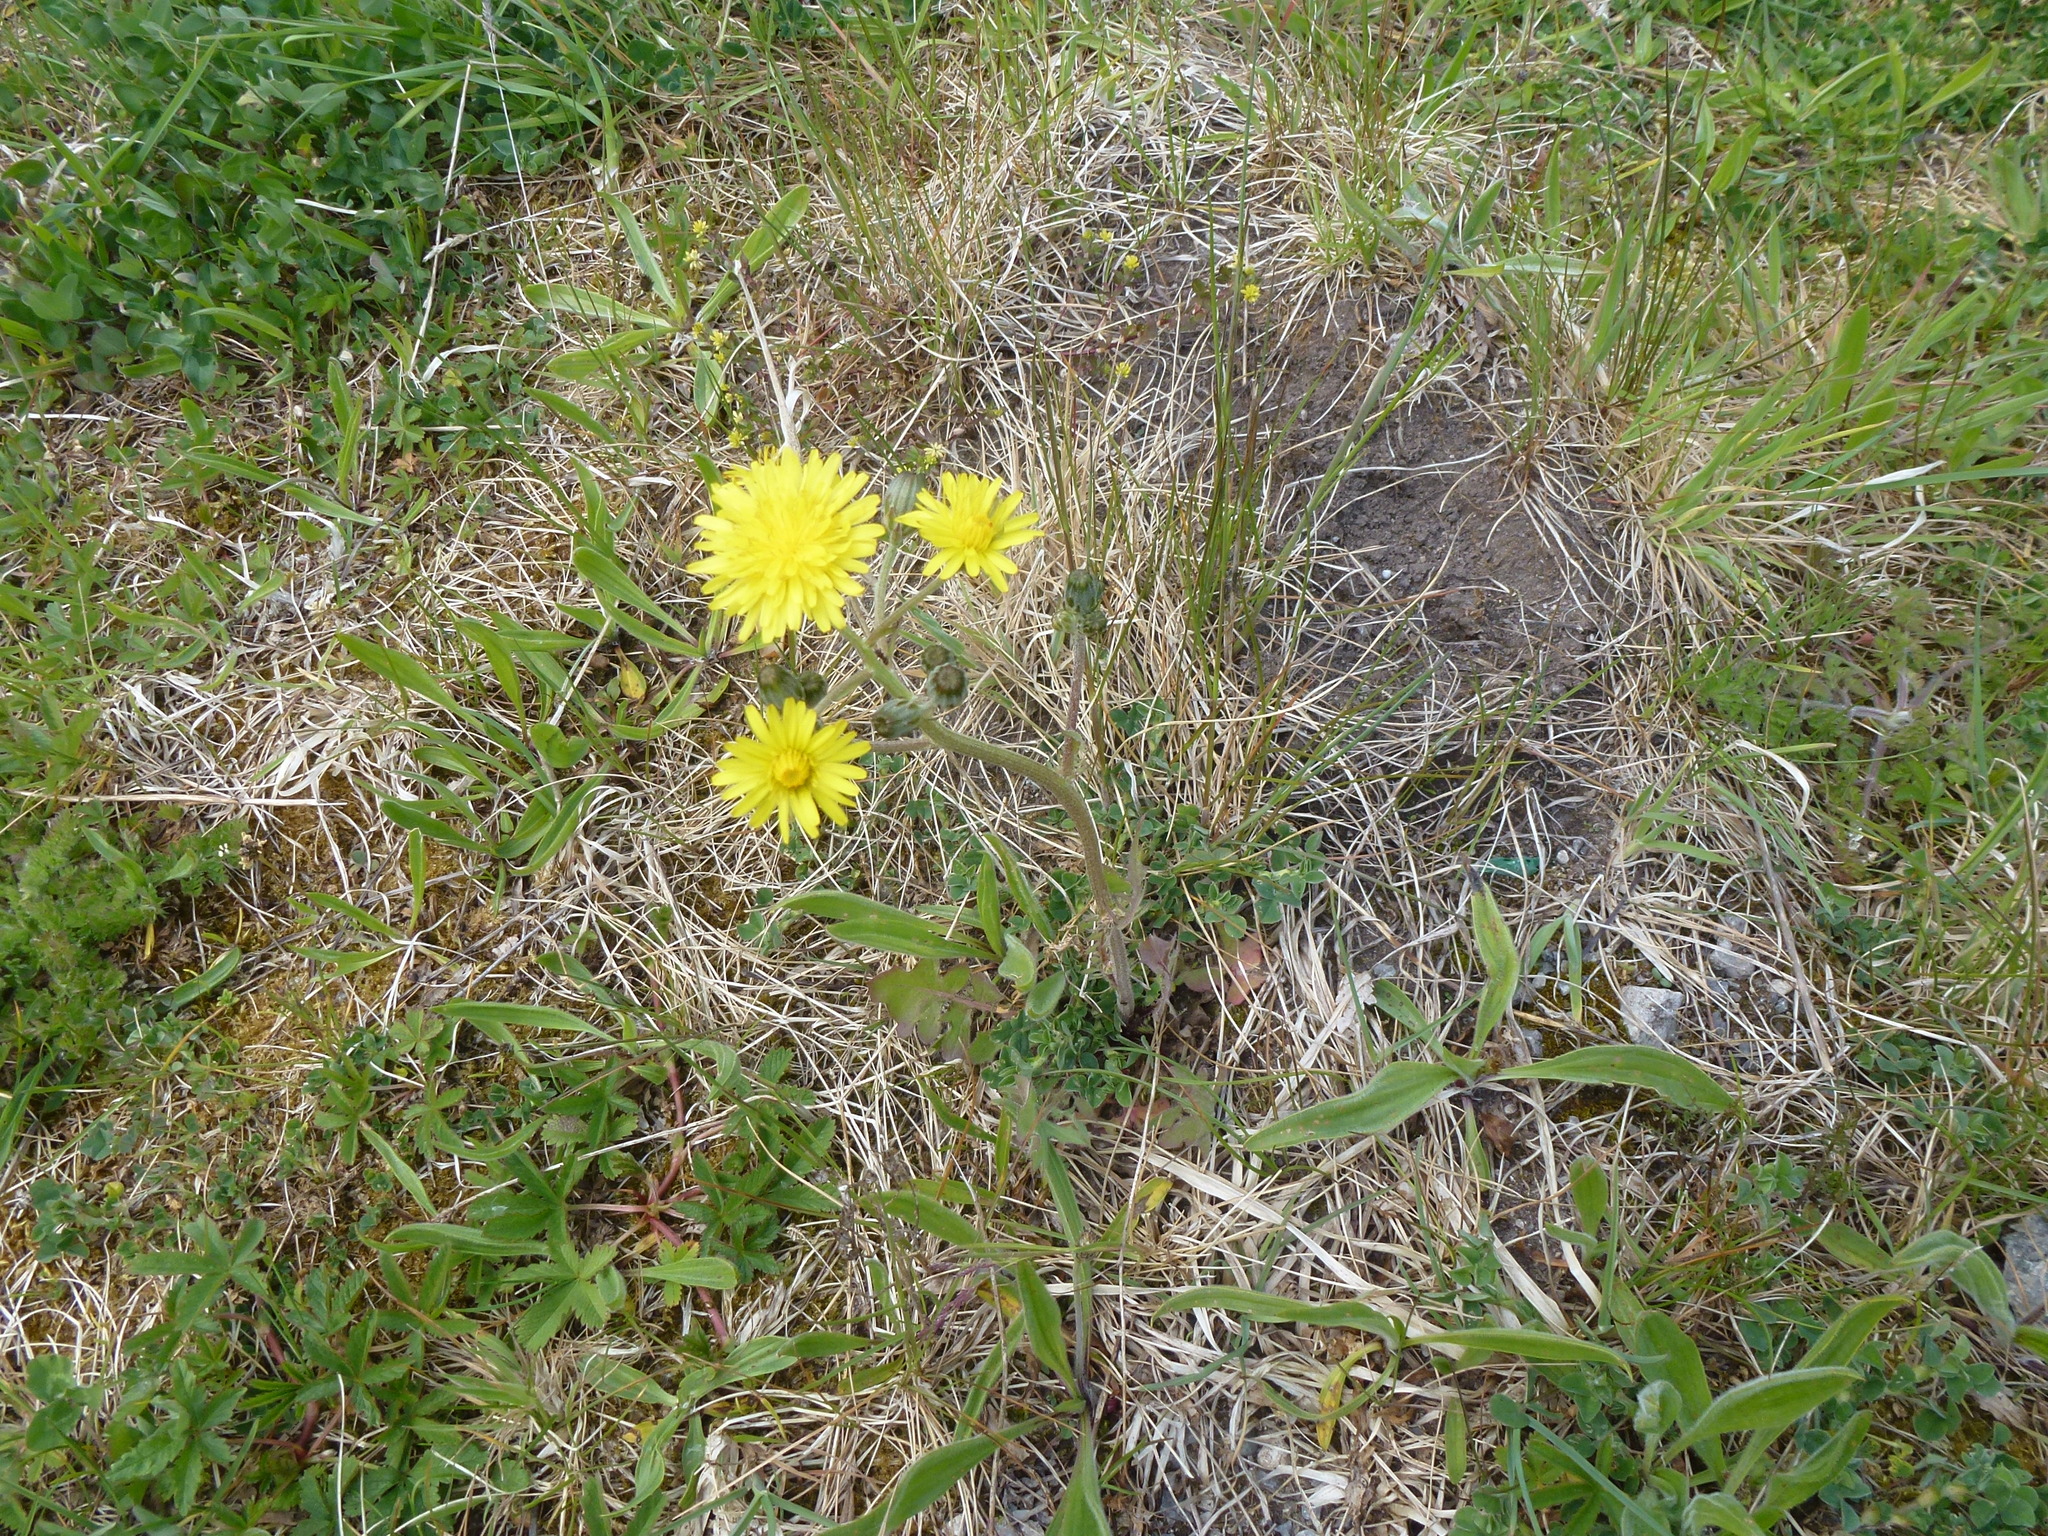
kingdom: Plantae
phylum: Tracheophyta
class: Magnoliopsida
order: Asterales
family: Asteraceae
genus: Crepis
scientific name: Crepis vesicaria
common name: Beaked hawksbeard
